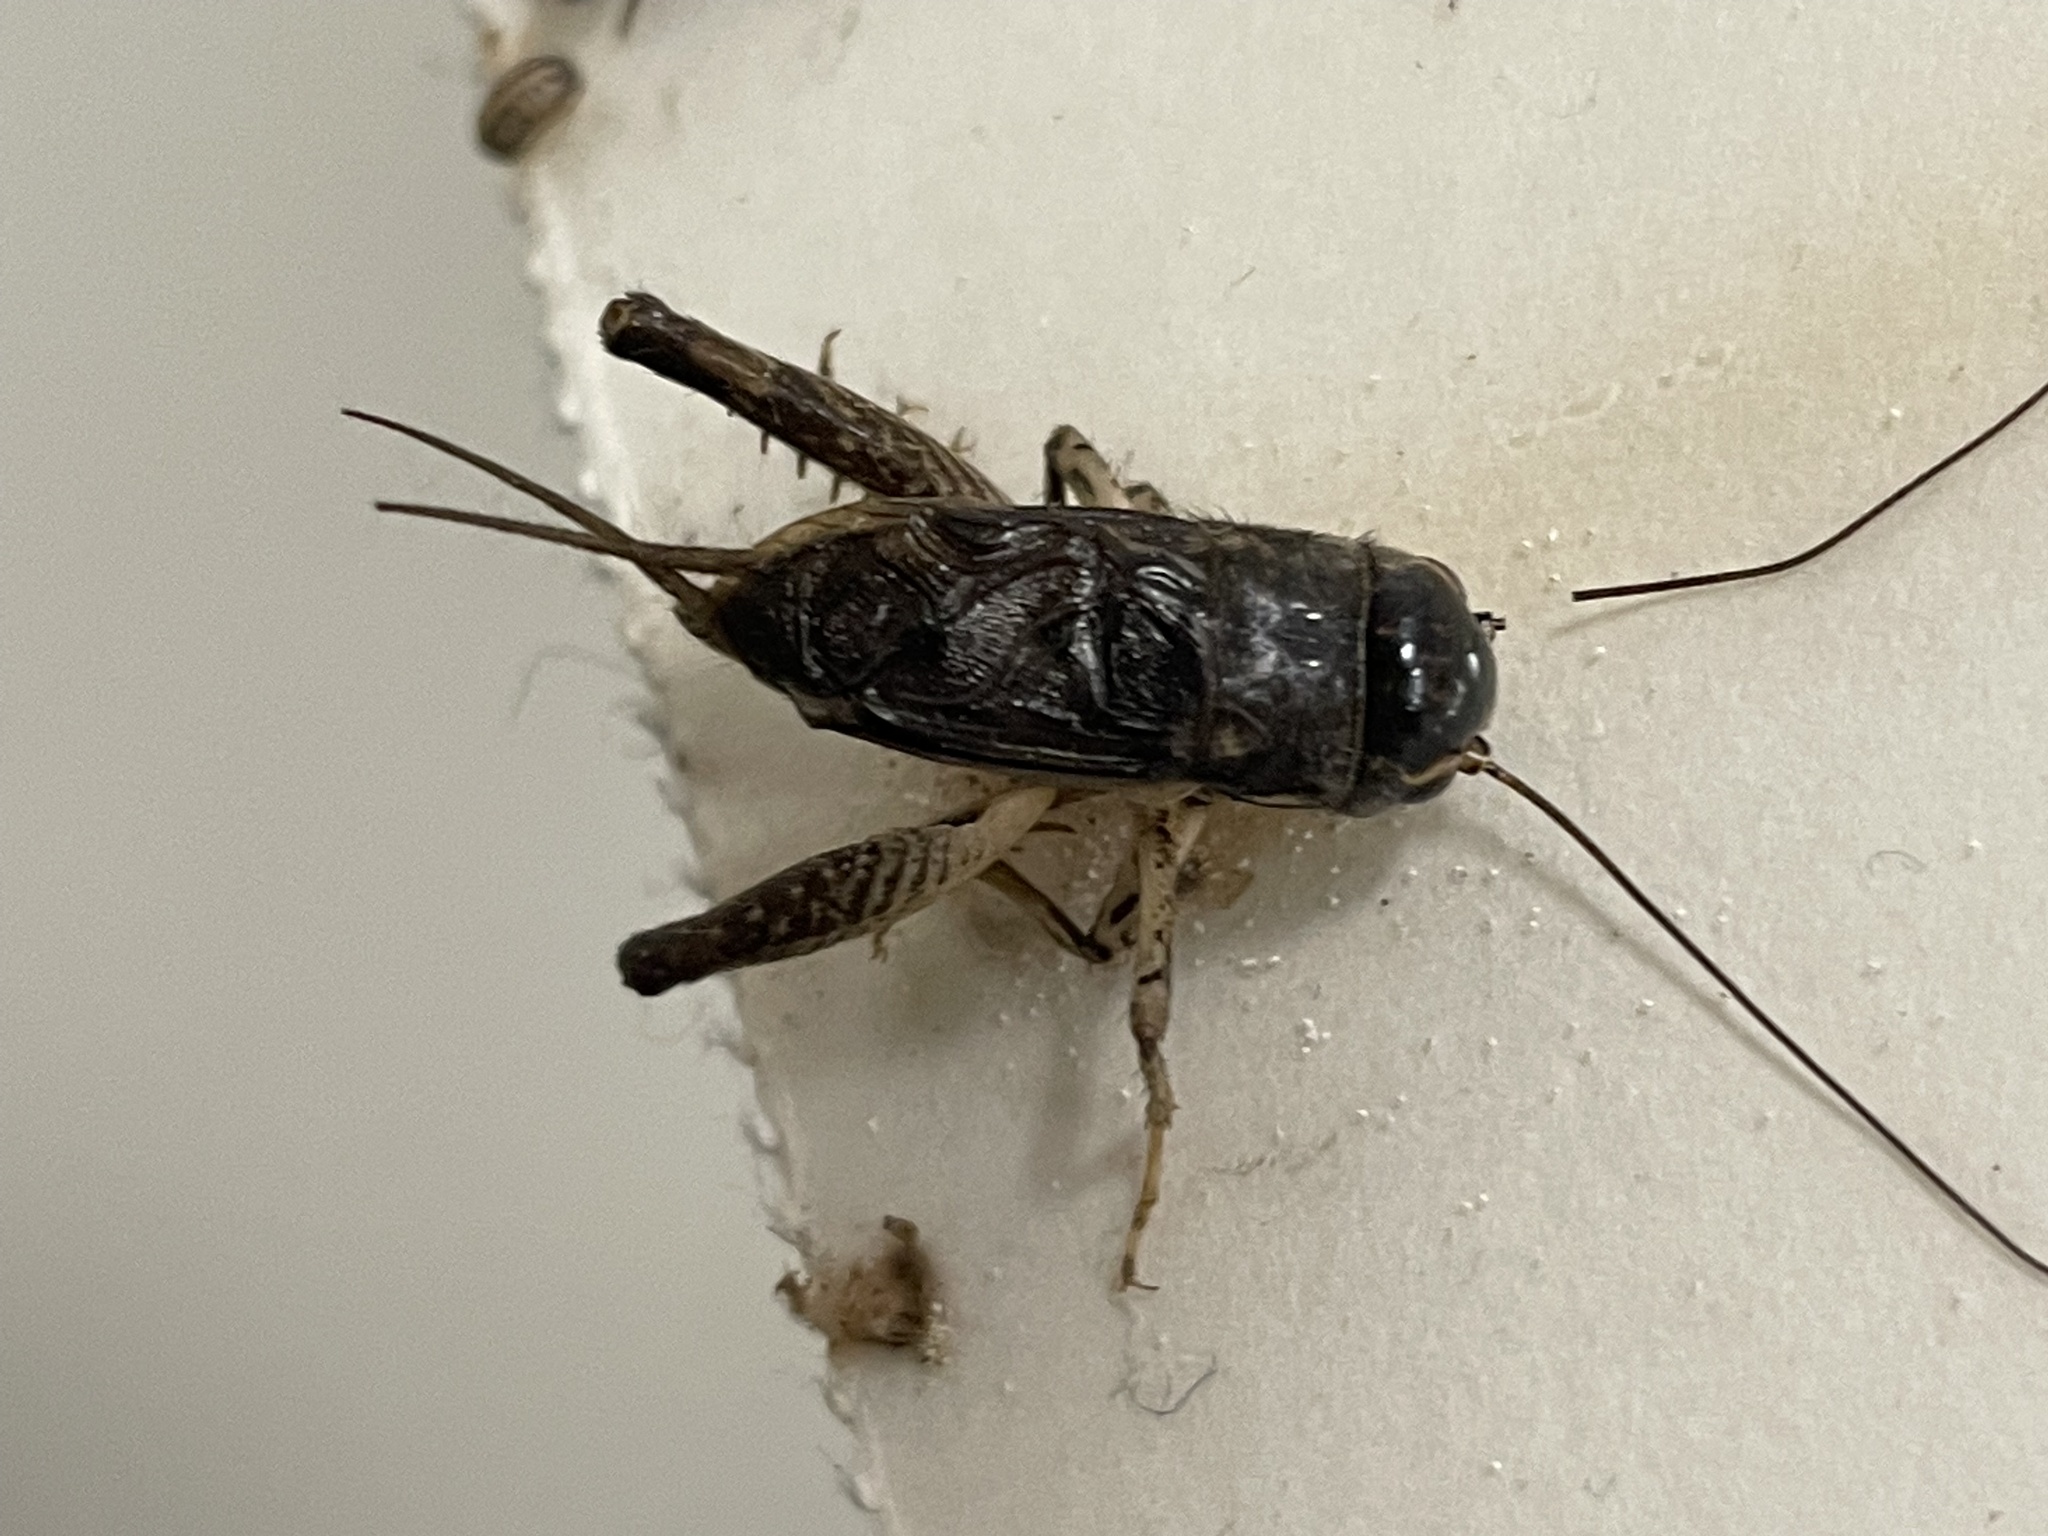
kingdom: Animalia
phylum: Arthropoda
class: Insecta
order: Orthoptera
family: Gryllidae
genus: Velarifictorus
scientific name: Velarifictorus micado
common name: Japanese burrowing cricket
